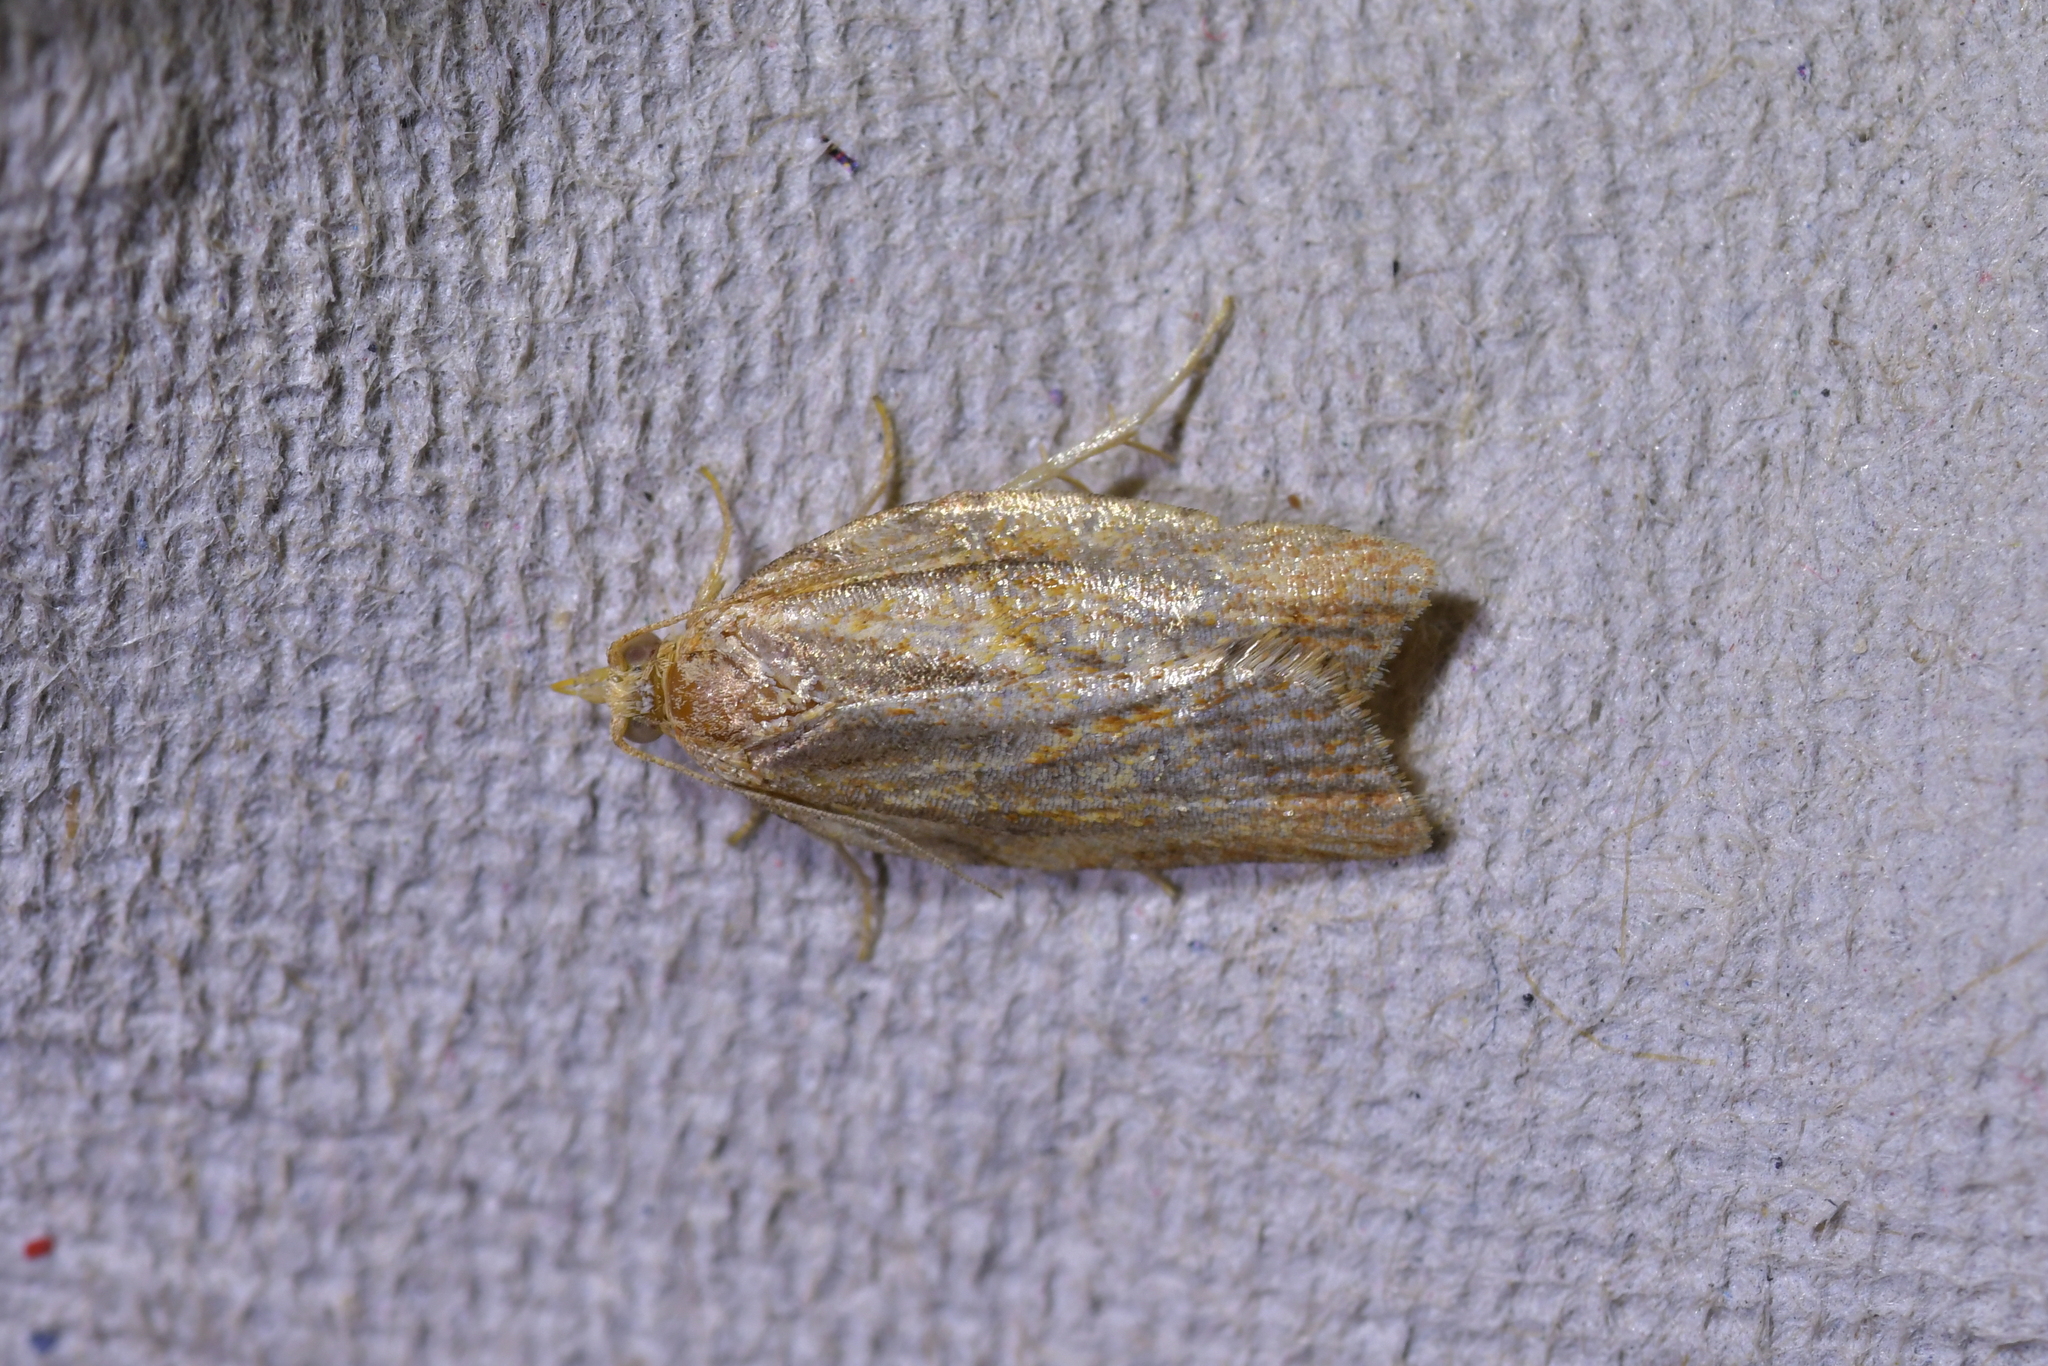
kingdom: Animalia
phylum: Arthropoda
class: Insecta
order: Lepidoptera
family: Tortricidae
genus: Epiphyas
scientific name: Epiphyas postvittana
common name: Light brown apple moth
